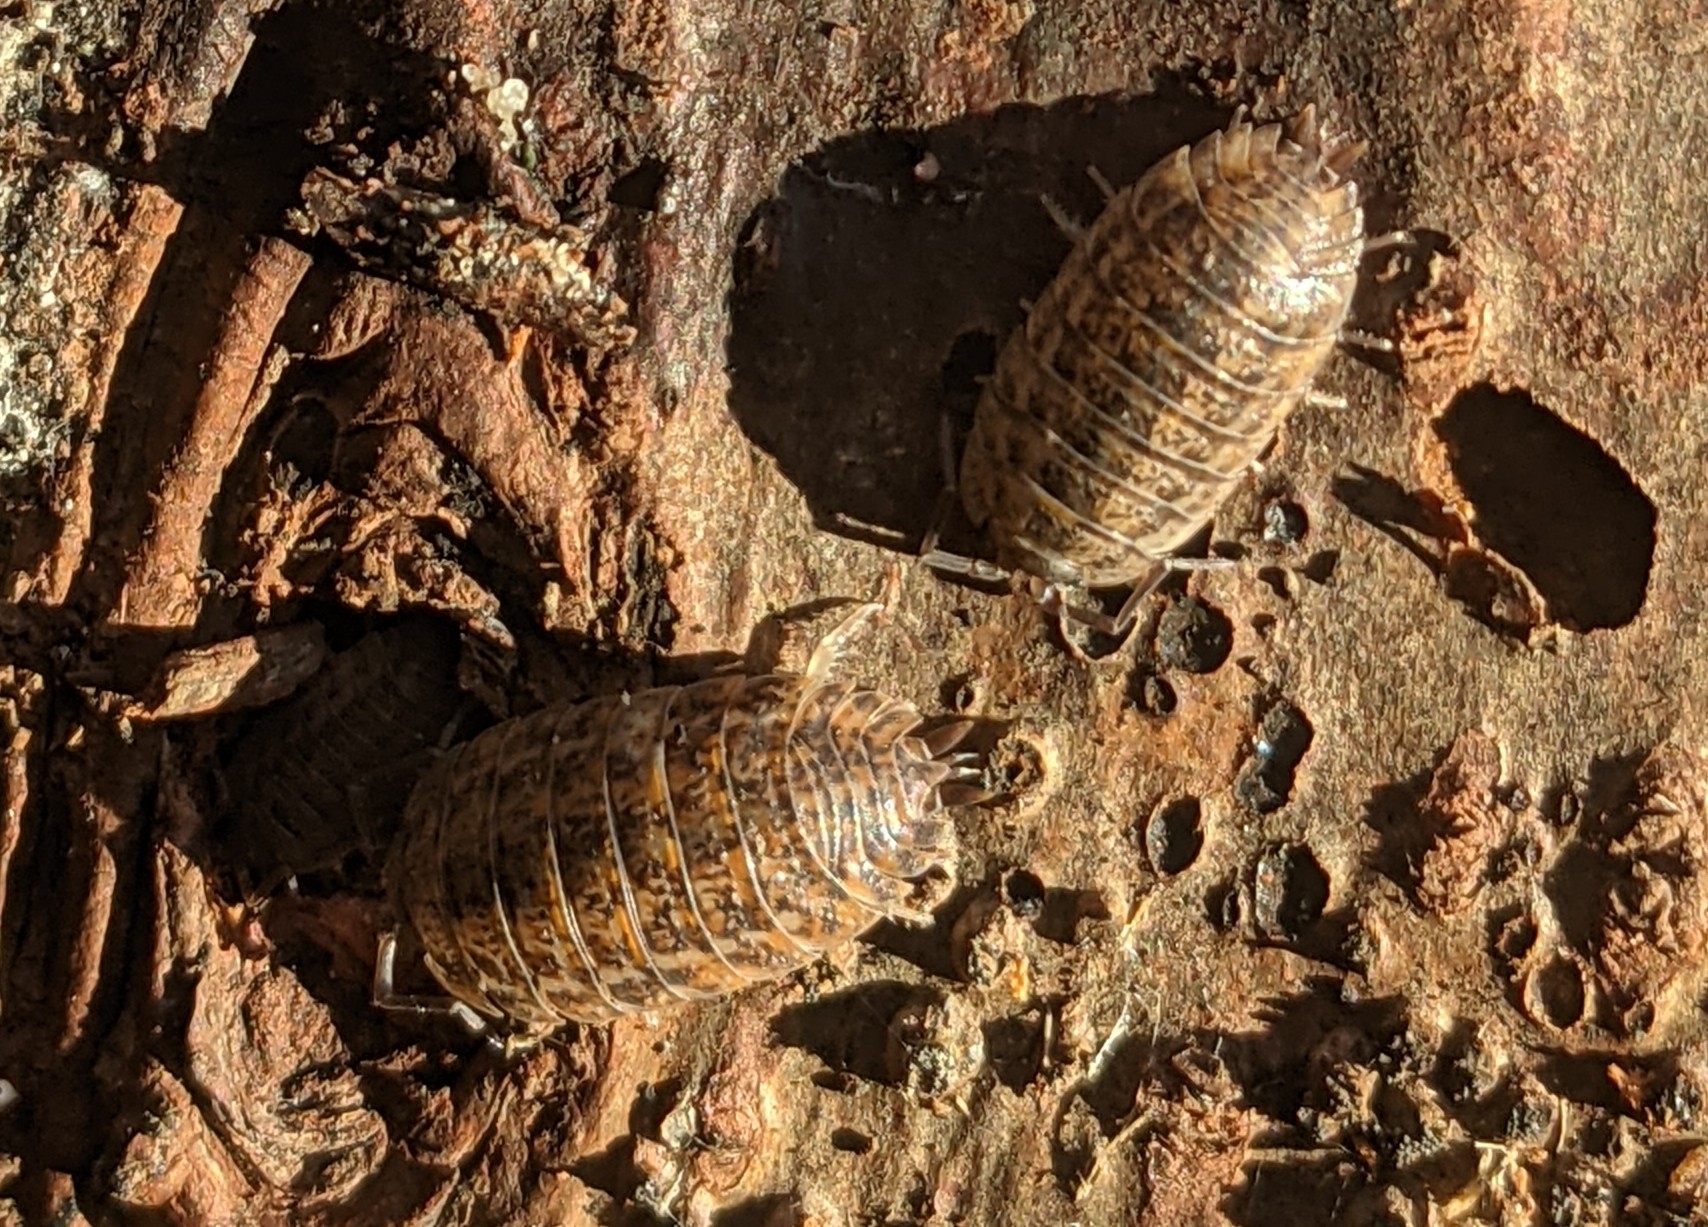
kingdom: Animalia
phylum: Arthropoda
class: Malacostraca
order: Isopoda
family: Trachelipodidae
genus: Trachelipus
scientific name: Trachelipus rathkii
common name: Isopod
